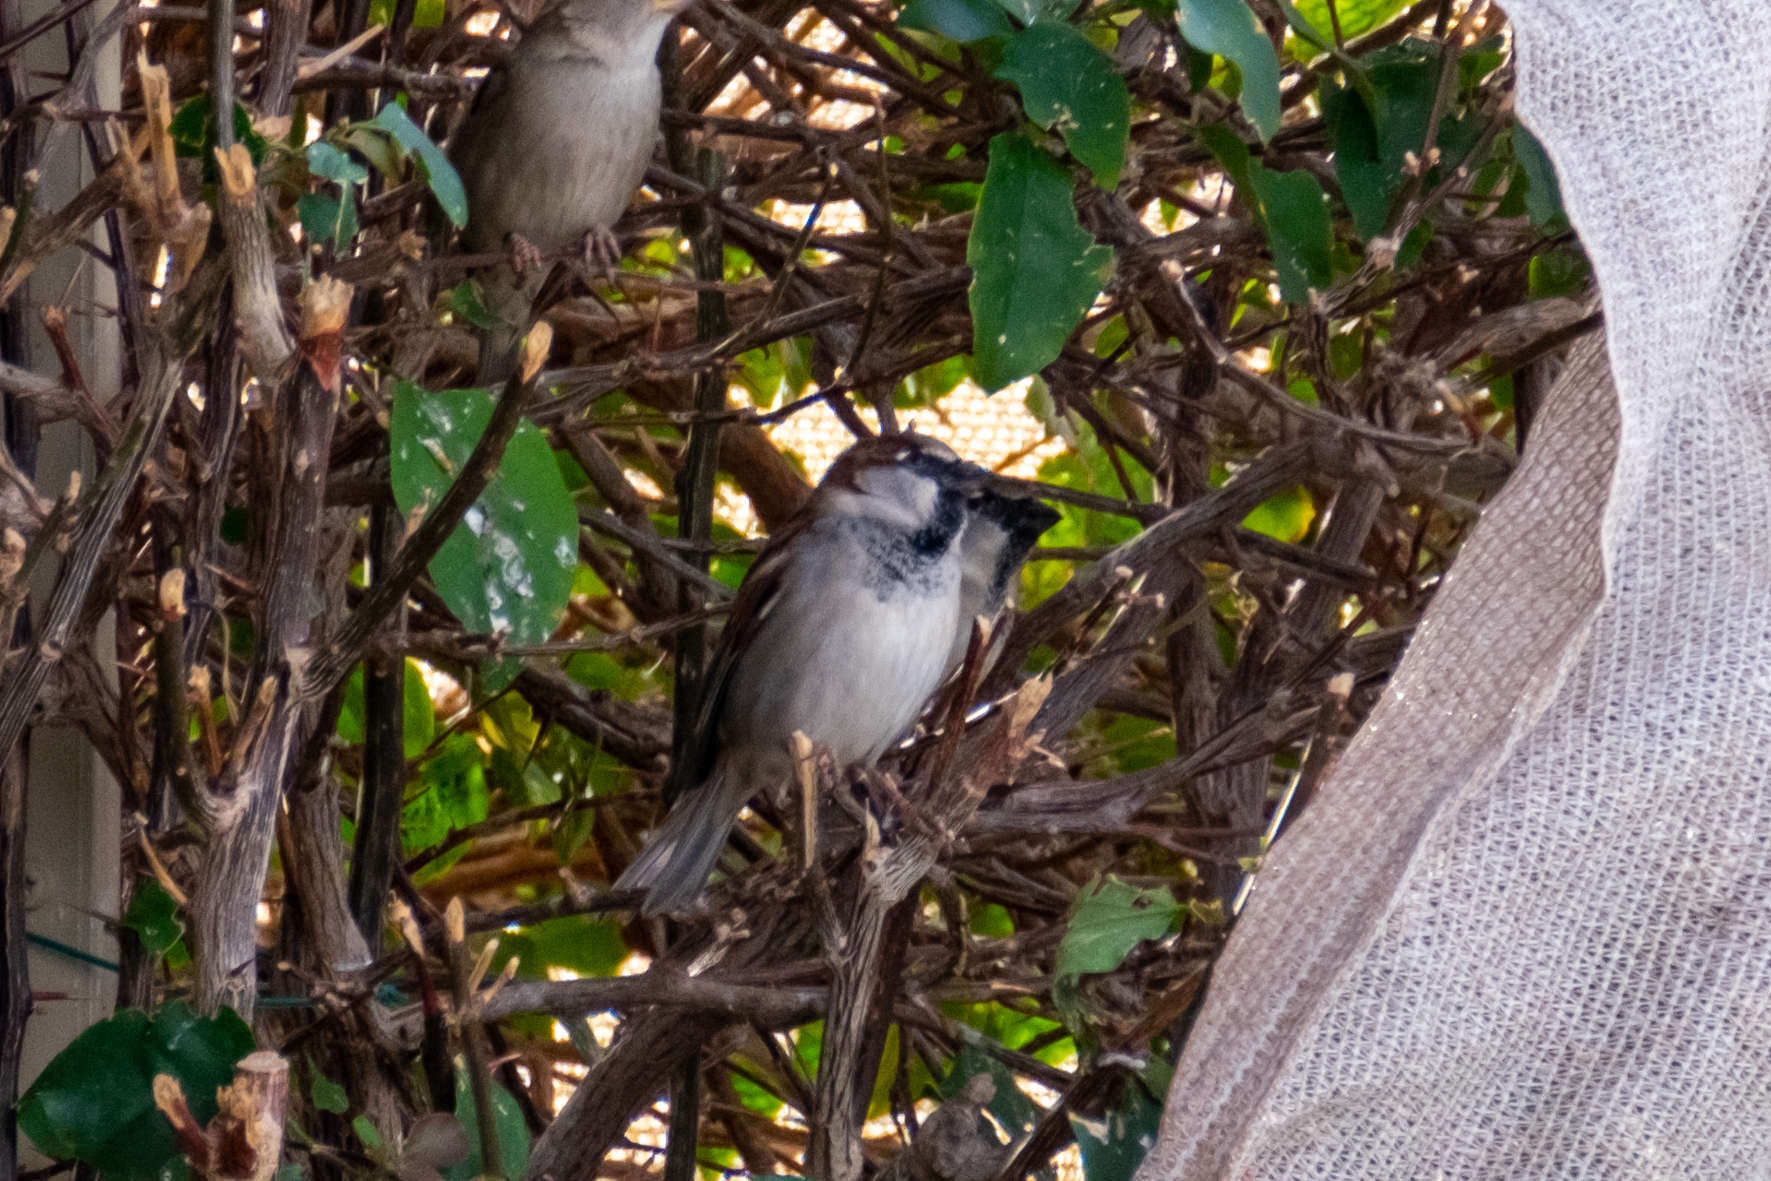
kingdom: Animalia
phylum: Chordata
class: Aves
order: Passeriformes
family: Passeridae
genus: Passer
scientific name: Passer domesticus
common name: House sparrow
